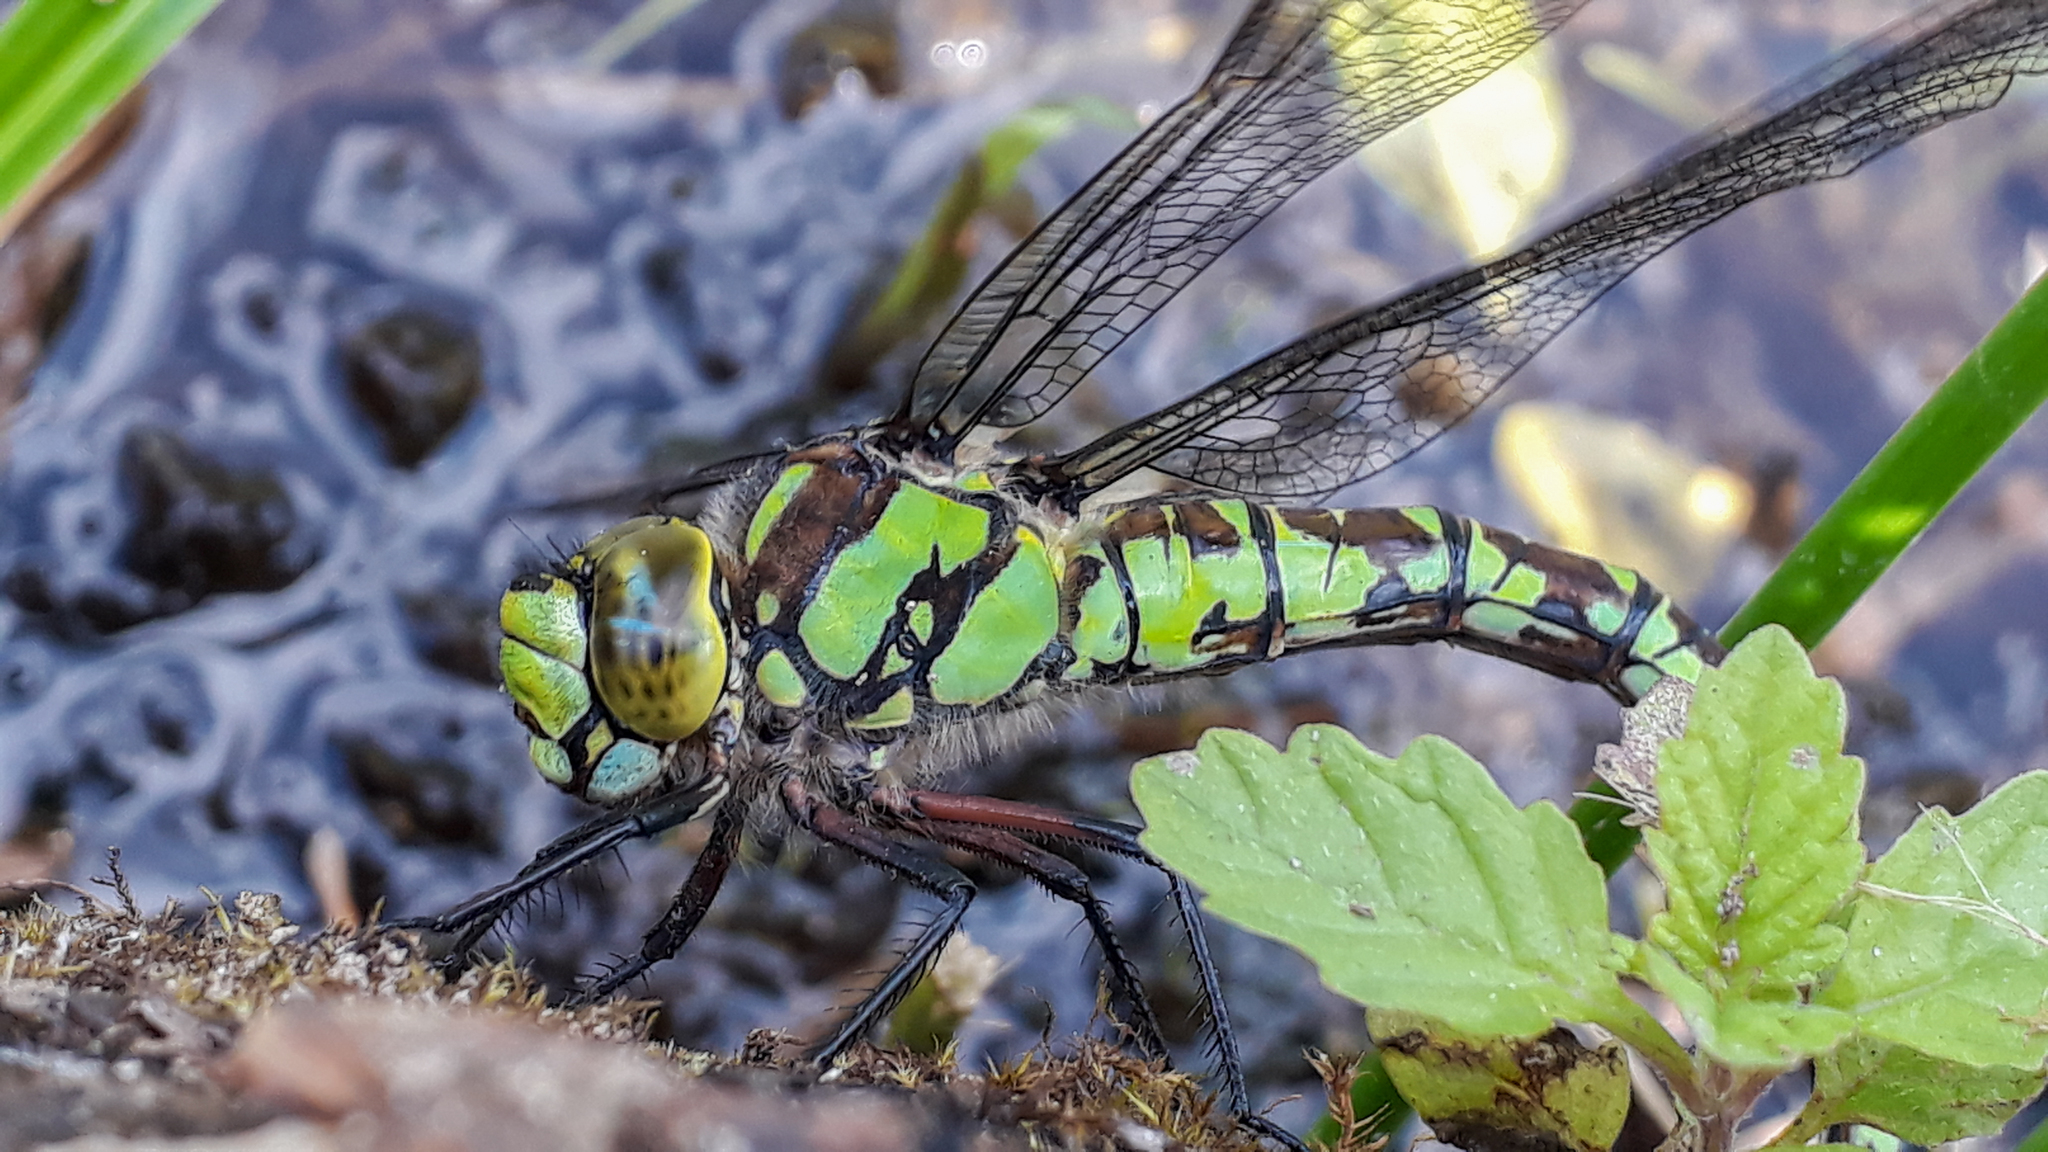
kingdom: Animalia
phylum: Arthropoda
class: Insecta
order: Odonata
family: Aeshnidae
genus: Aeshna
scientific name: Aeshna cyanea
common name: Southern hawker
